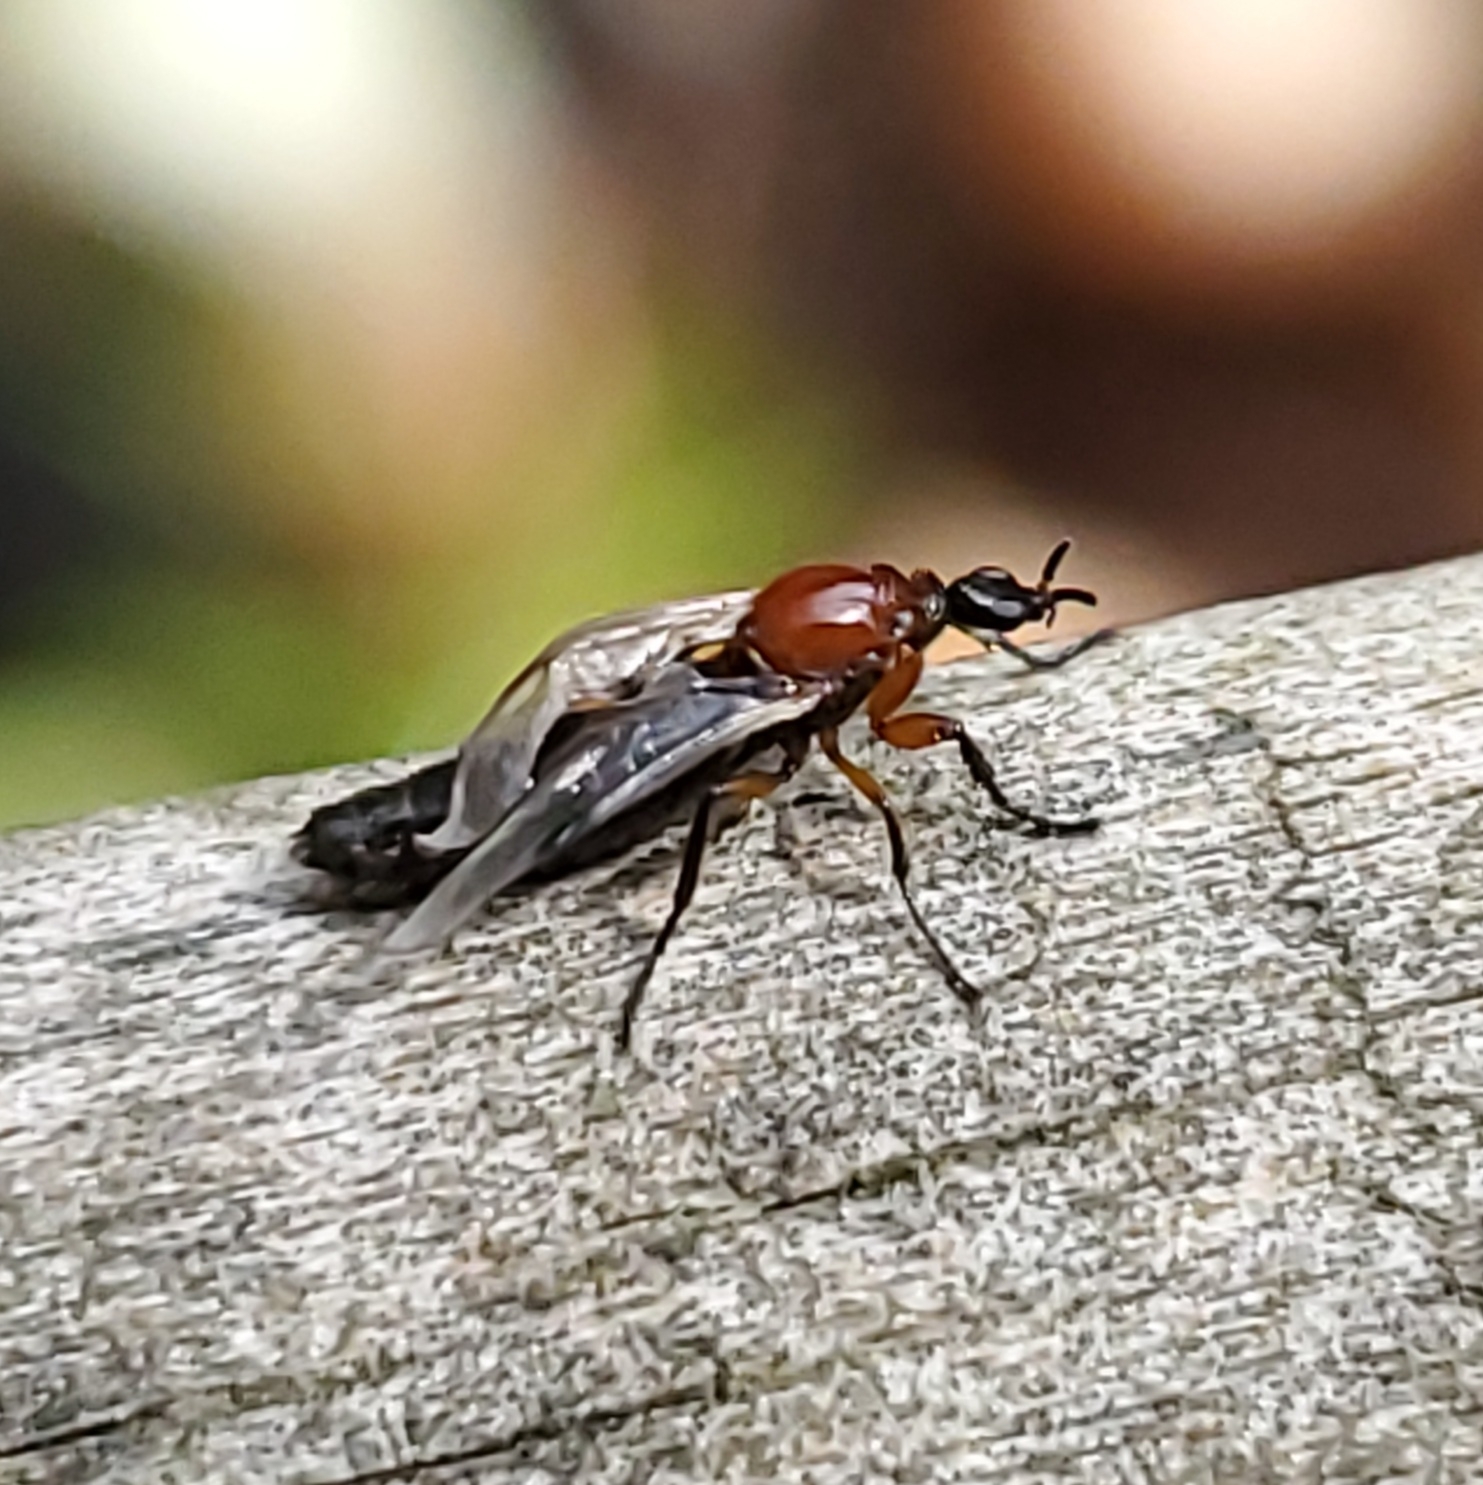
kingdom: Animalia
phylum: Arthropoda
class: Insecta
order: Diptera
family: Bibionidae
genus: Dilophus
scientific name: Dilophus tibialis
